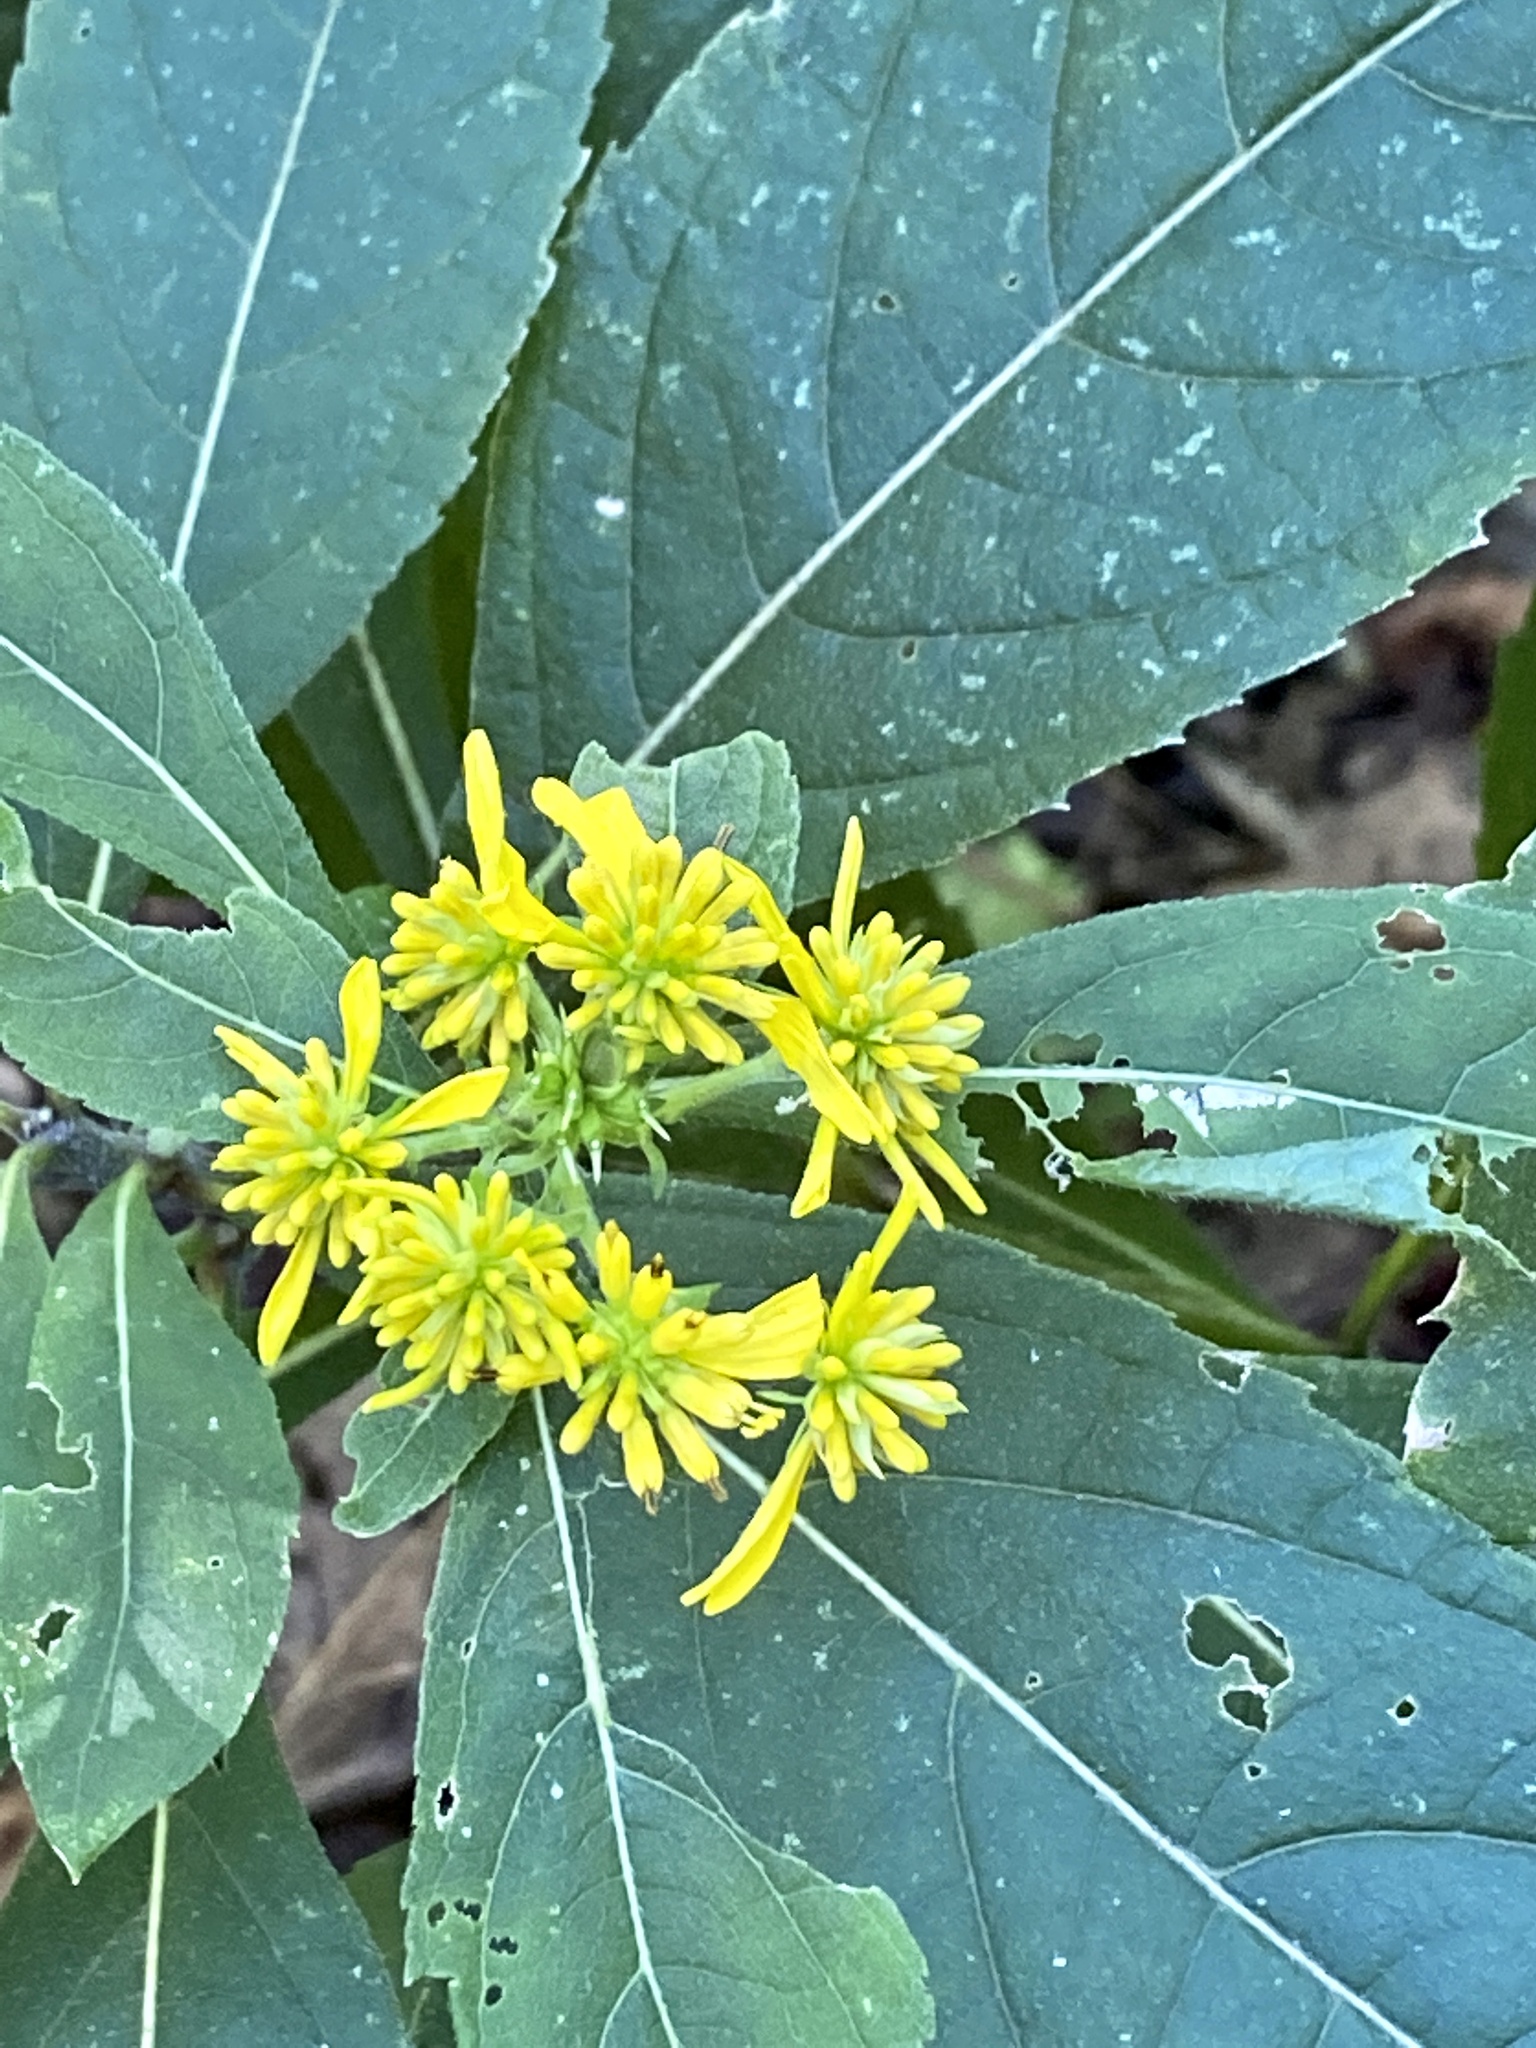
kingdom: Plantae
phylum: Tracheophyta
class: Magnoliopsida
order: Asterales
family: Asteraceae
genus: Verbesina
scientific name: Verbesina alternifolia
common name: Wingstem
